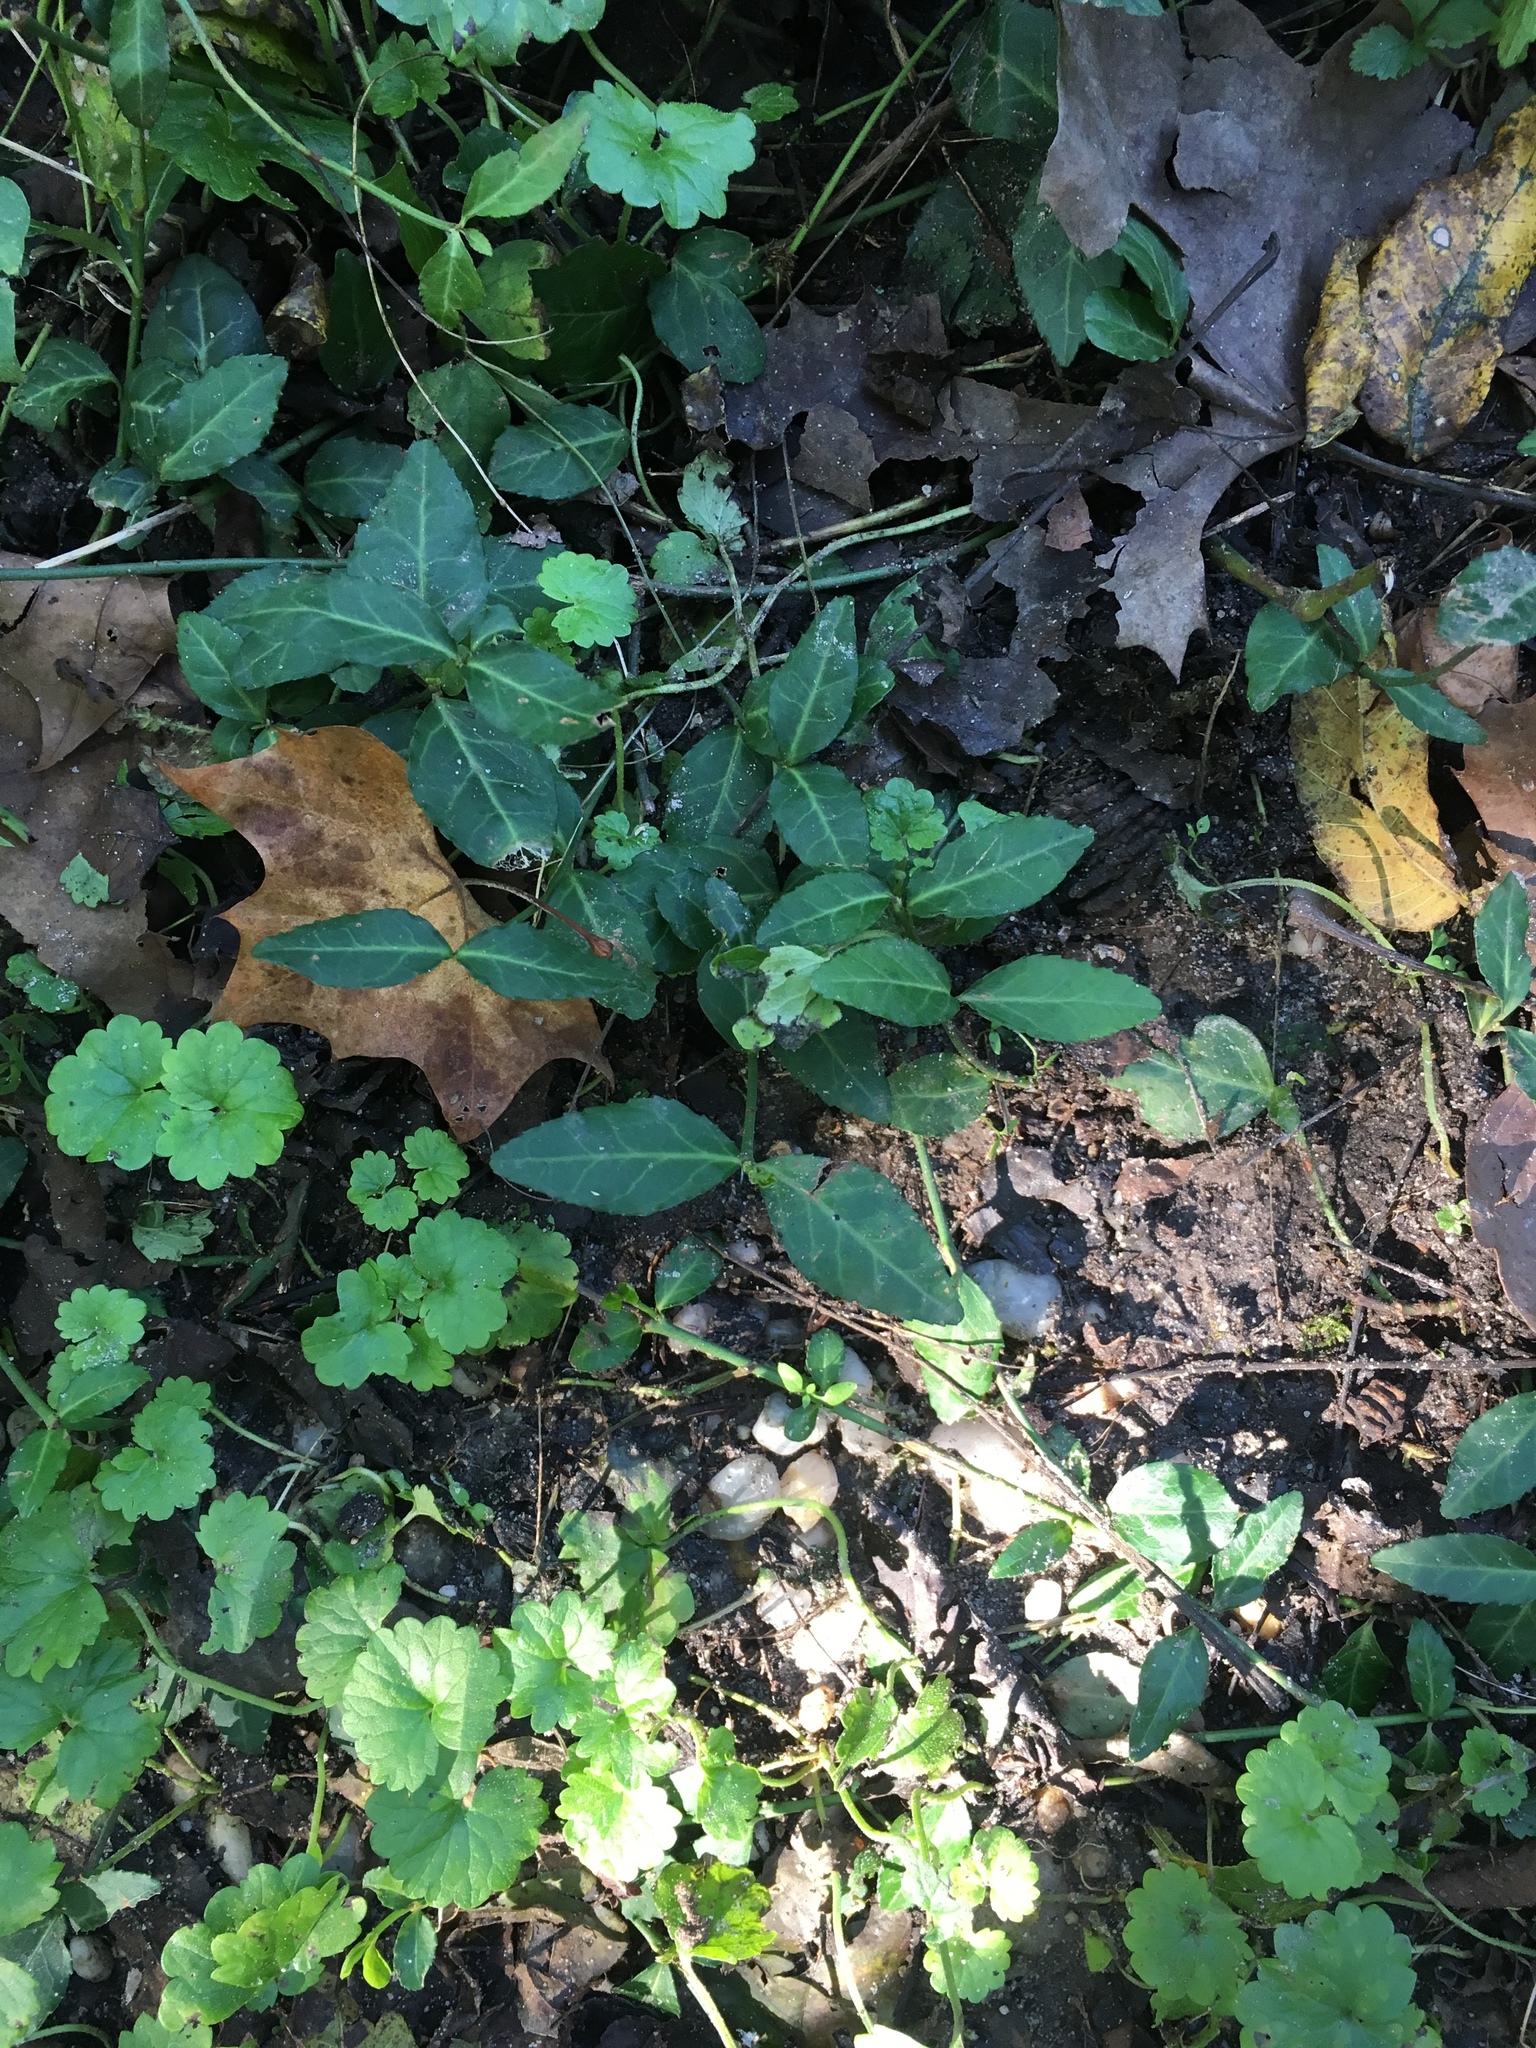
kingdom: Plantae
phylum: Tracheophyta
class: Magnoliopsida
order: Celastrales
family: Celastraceae
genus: Euonymus
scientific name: Euonymus fortunei
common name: Climbing euonymus
